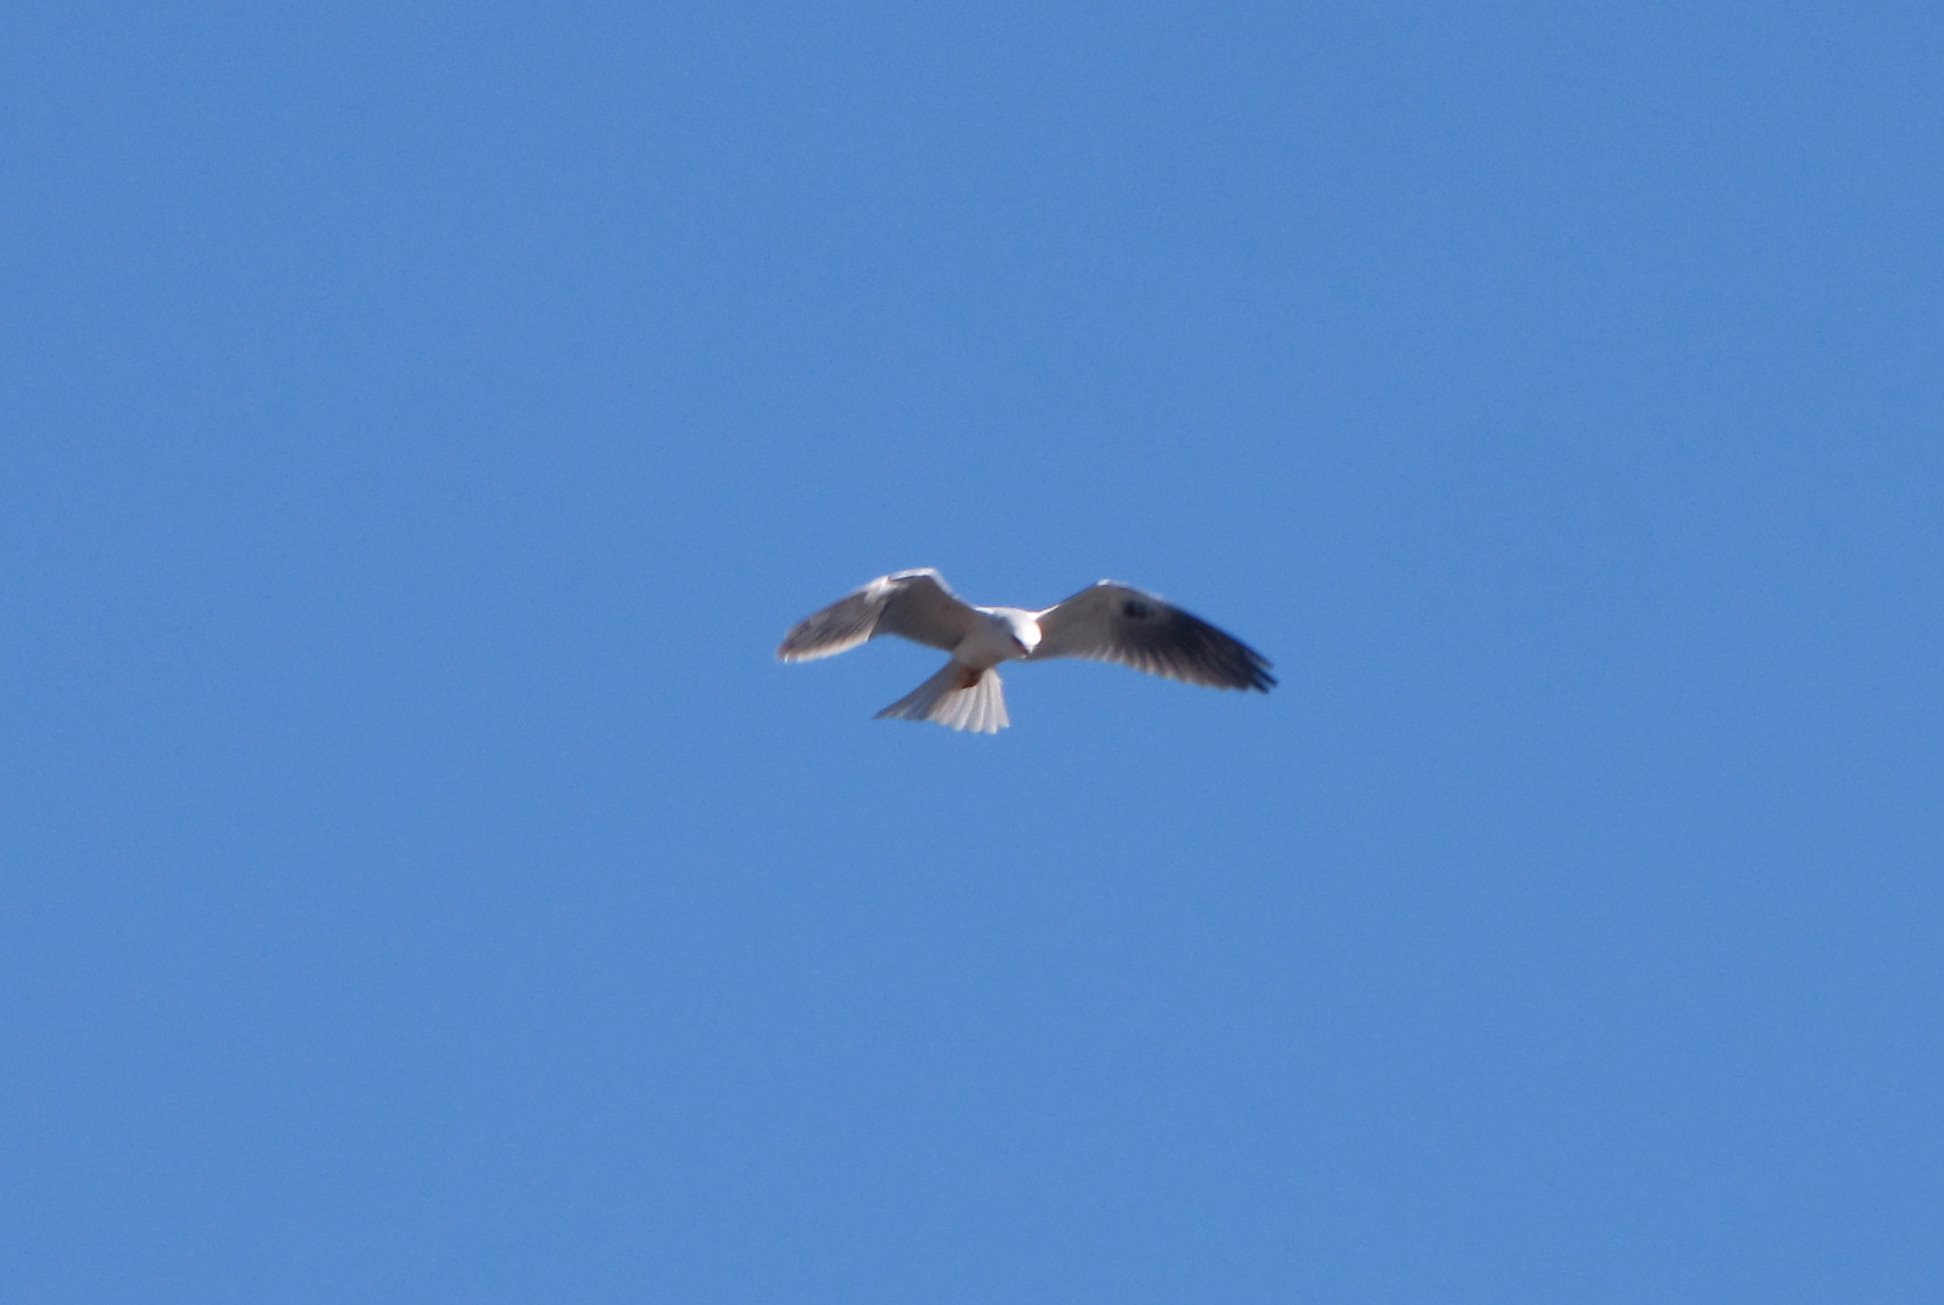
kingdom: Animalia
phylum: Chordata
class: Aves
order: Accipitriformes
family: Accipitridae
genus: Elanus
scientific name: Elanus leucurus
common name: White-tailed kite
